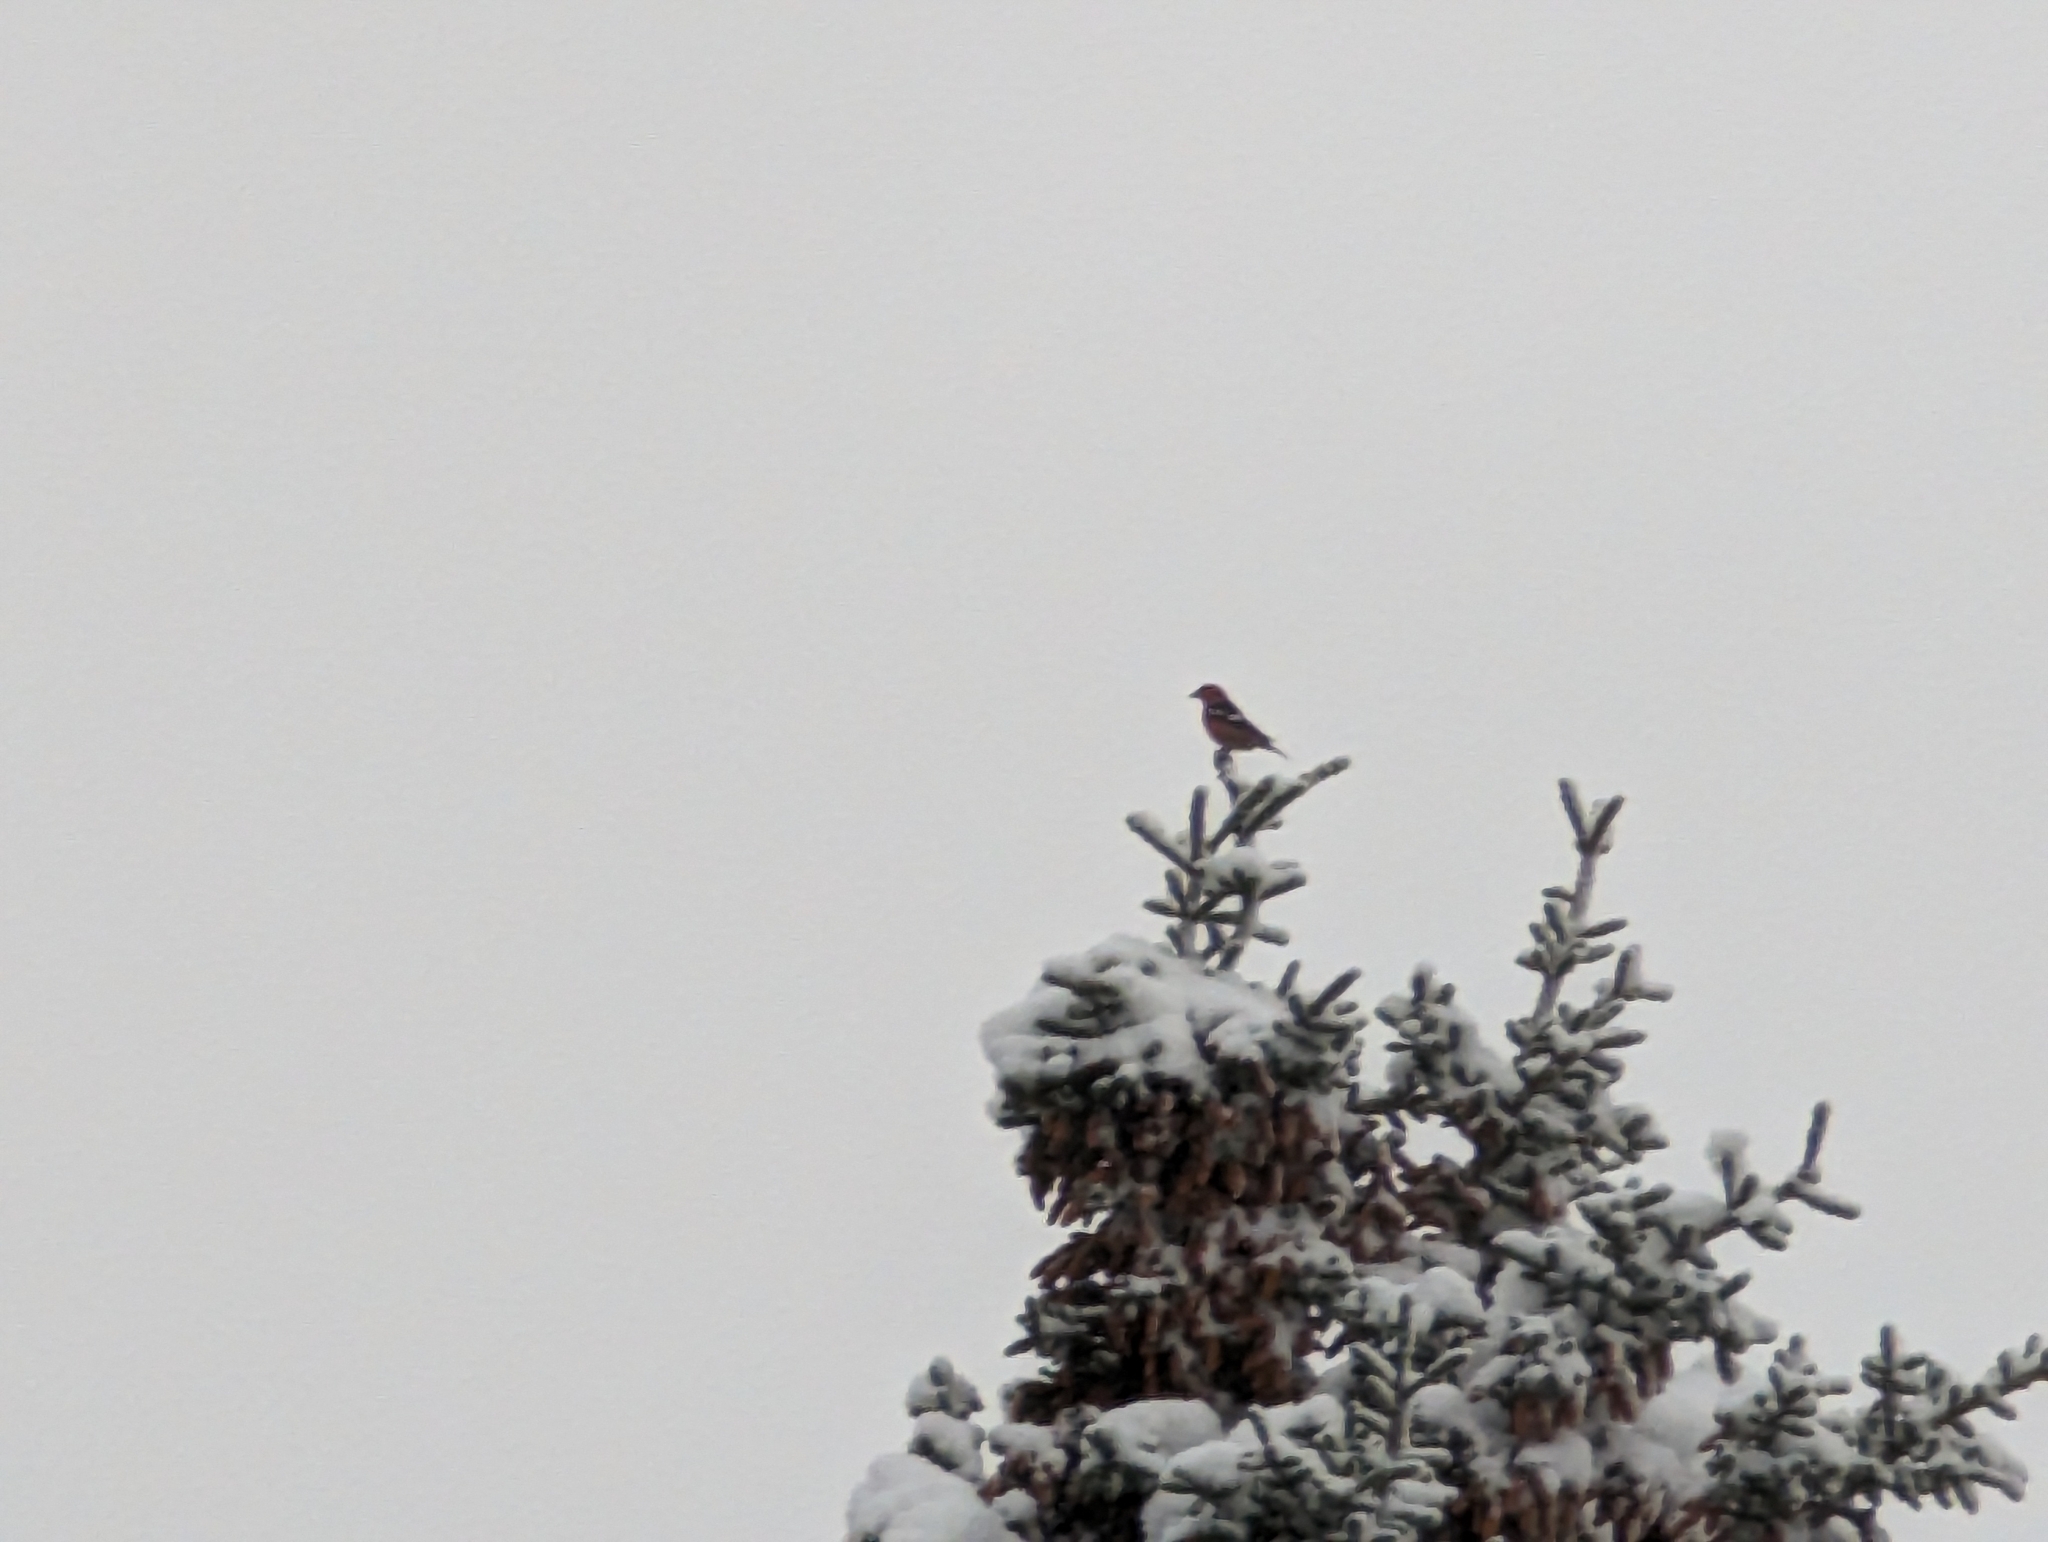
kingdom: Animalia
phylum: Chordata
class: Aves
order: Passeriformes
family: Fringillidae
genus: Loxia
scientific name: Loxia leucoptera
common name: Two-barred crossbill
